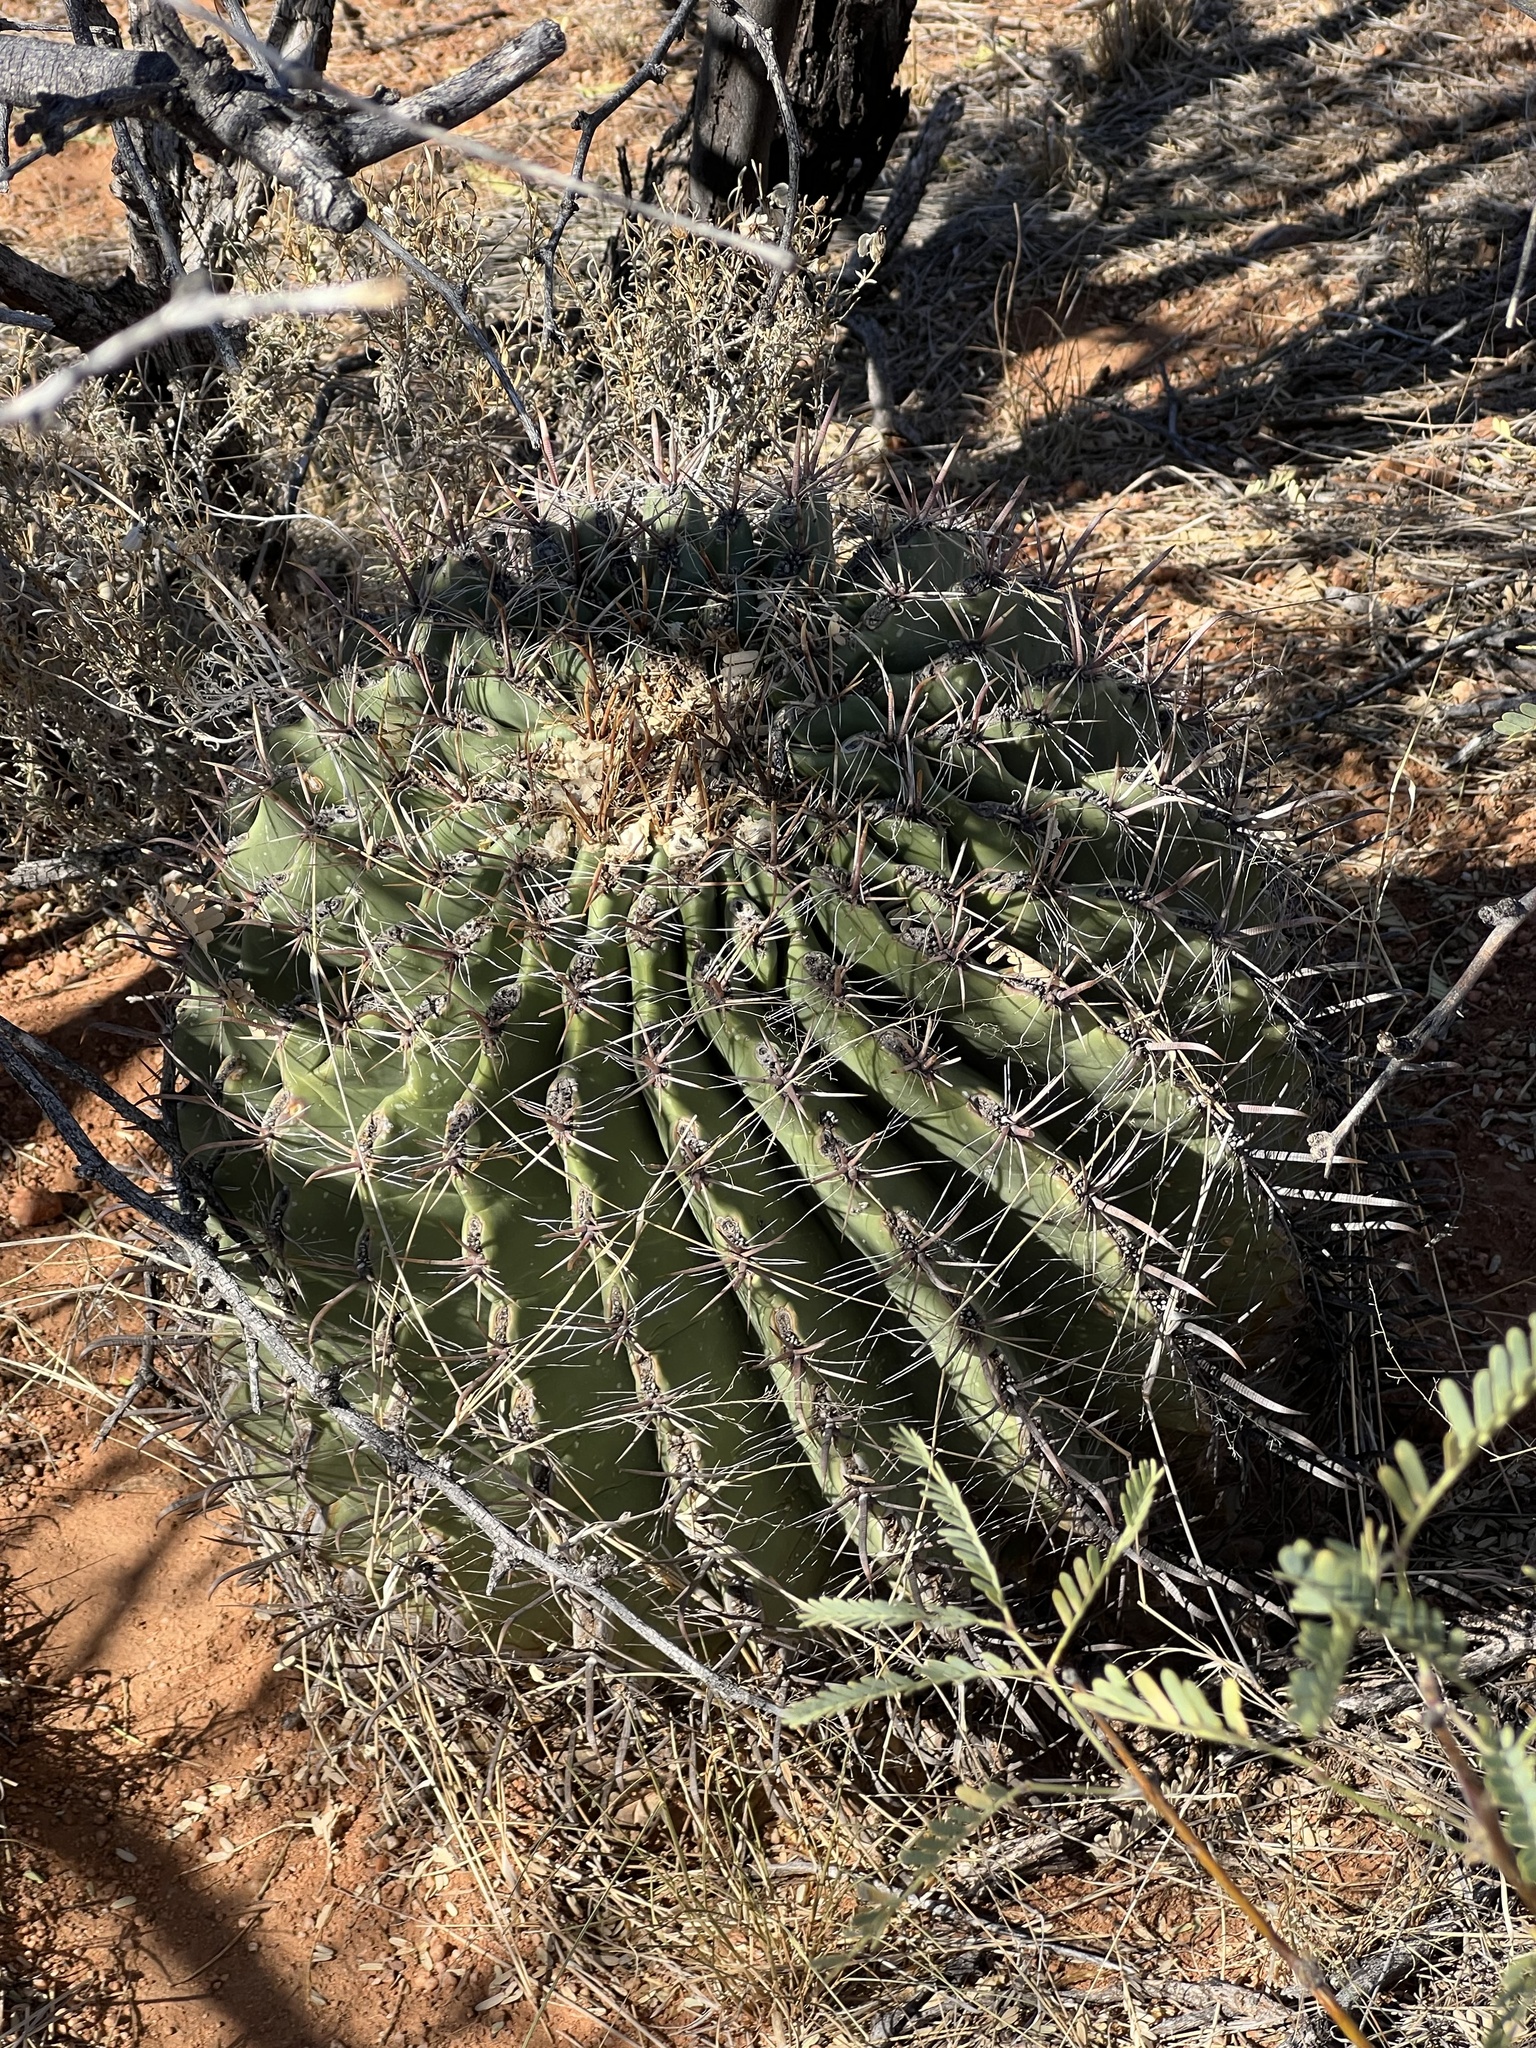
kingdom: Plantae
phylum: Tracheophyta
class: Magnoliopsida
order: Caryophyllales
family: Cactaceae
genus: Ferocactus
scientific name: Ferocactus wislizeni
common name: Candy barrel cactus
